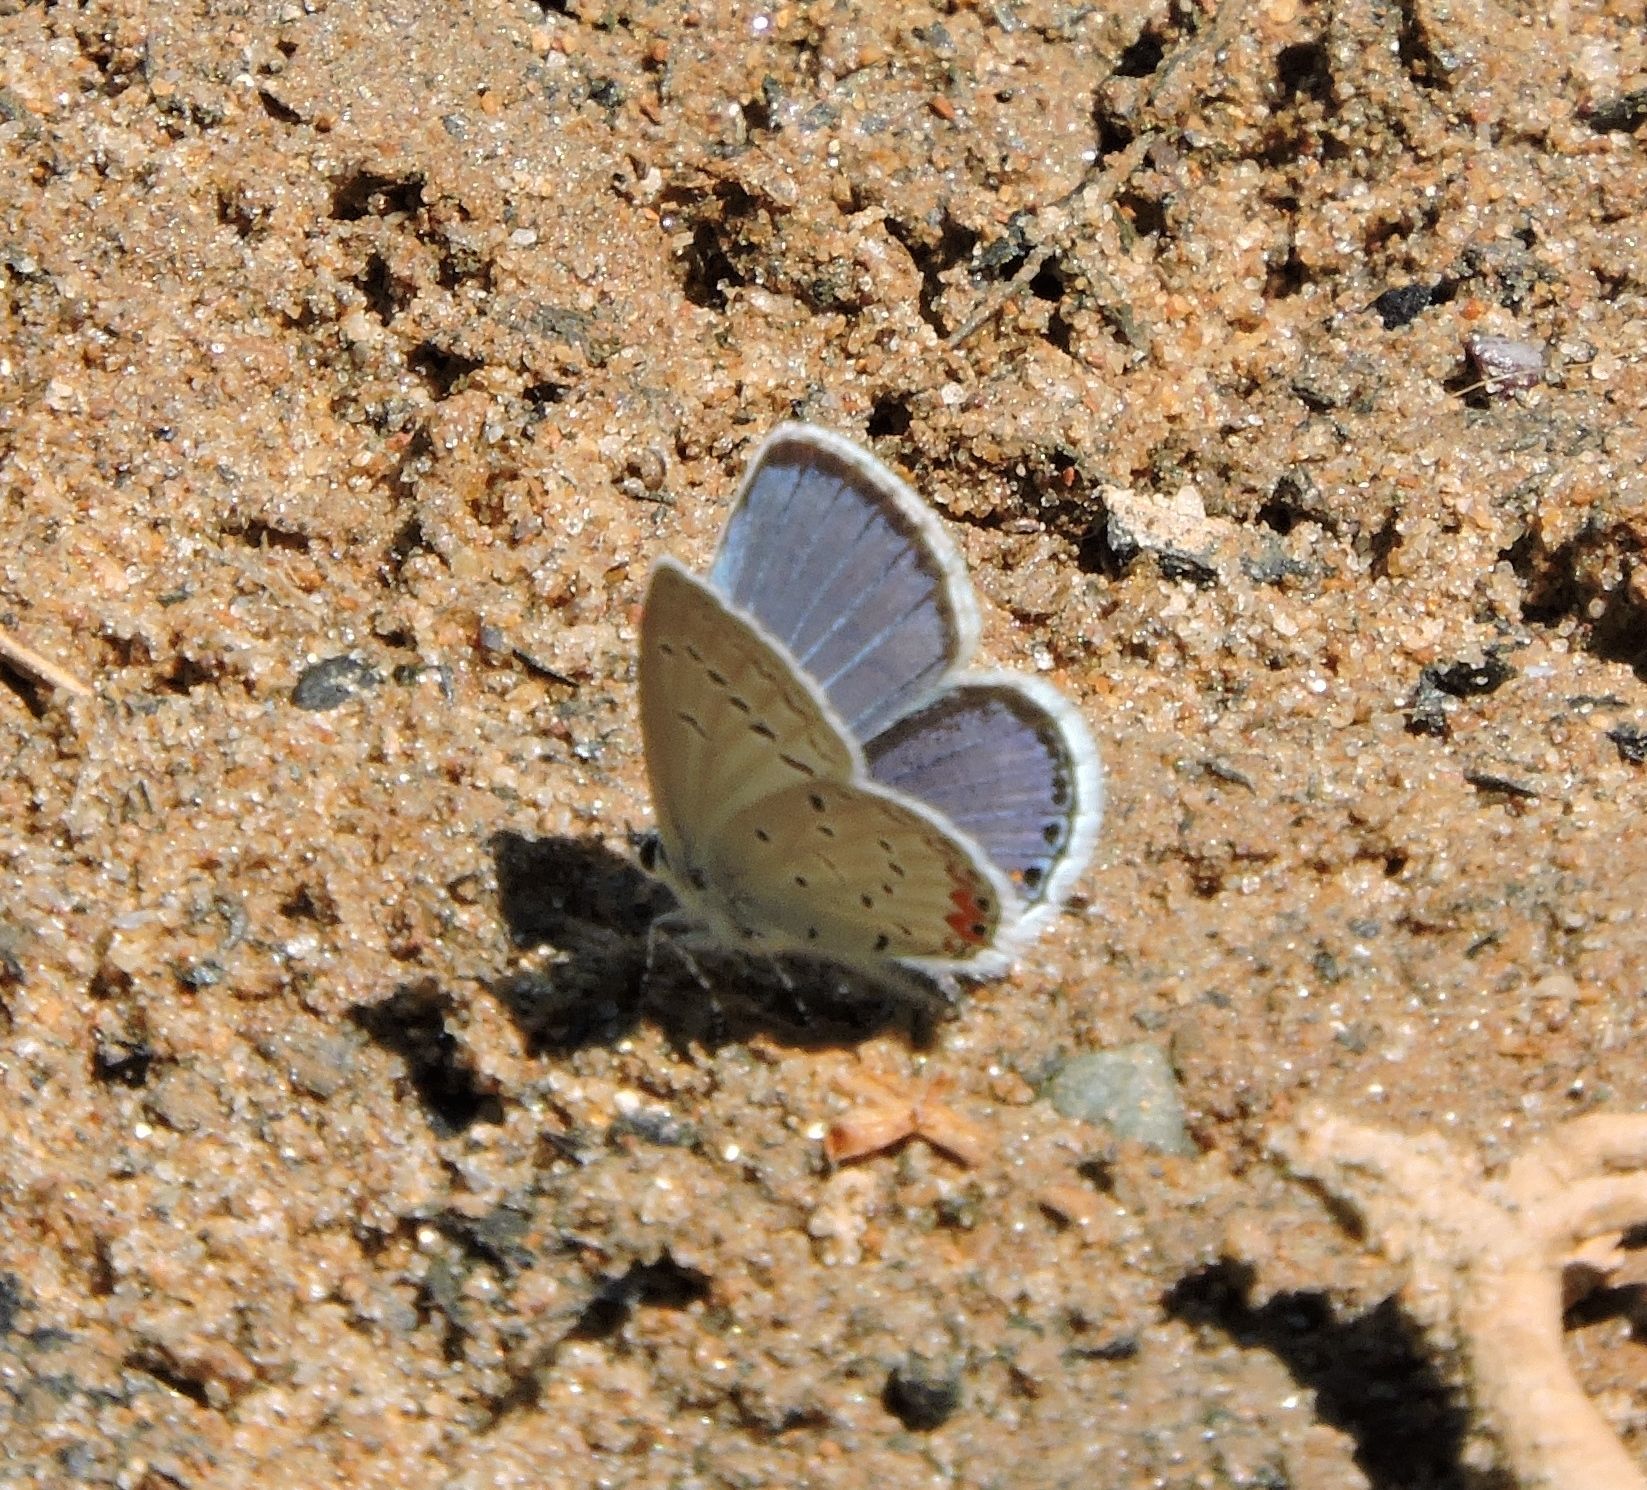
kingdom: Animalia
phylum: Arthropoda
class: Insecta
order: Lepidoptera
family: Lycaenidae
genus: Elkalyce
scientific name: Elkalyce comyntas
